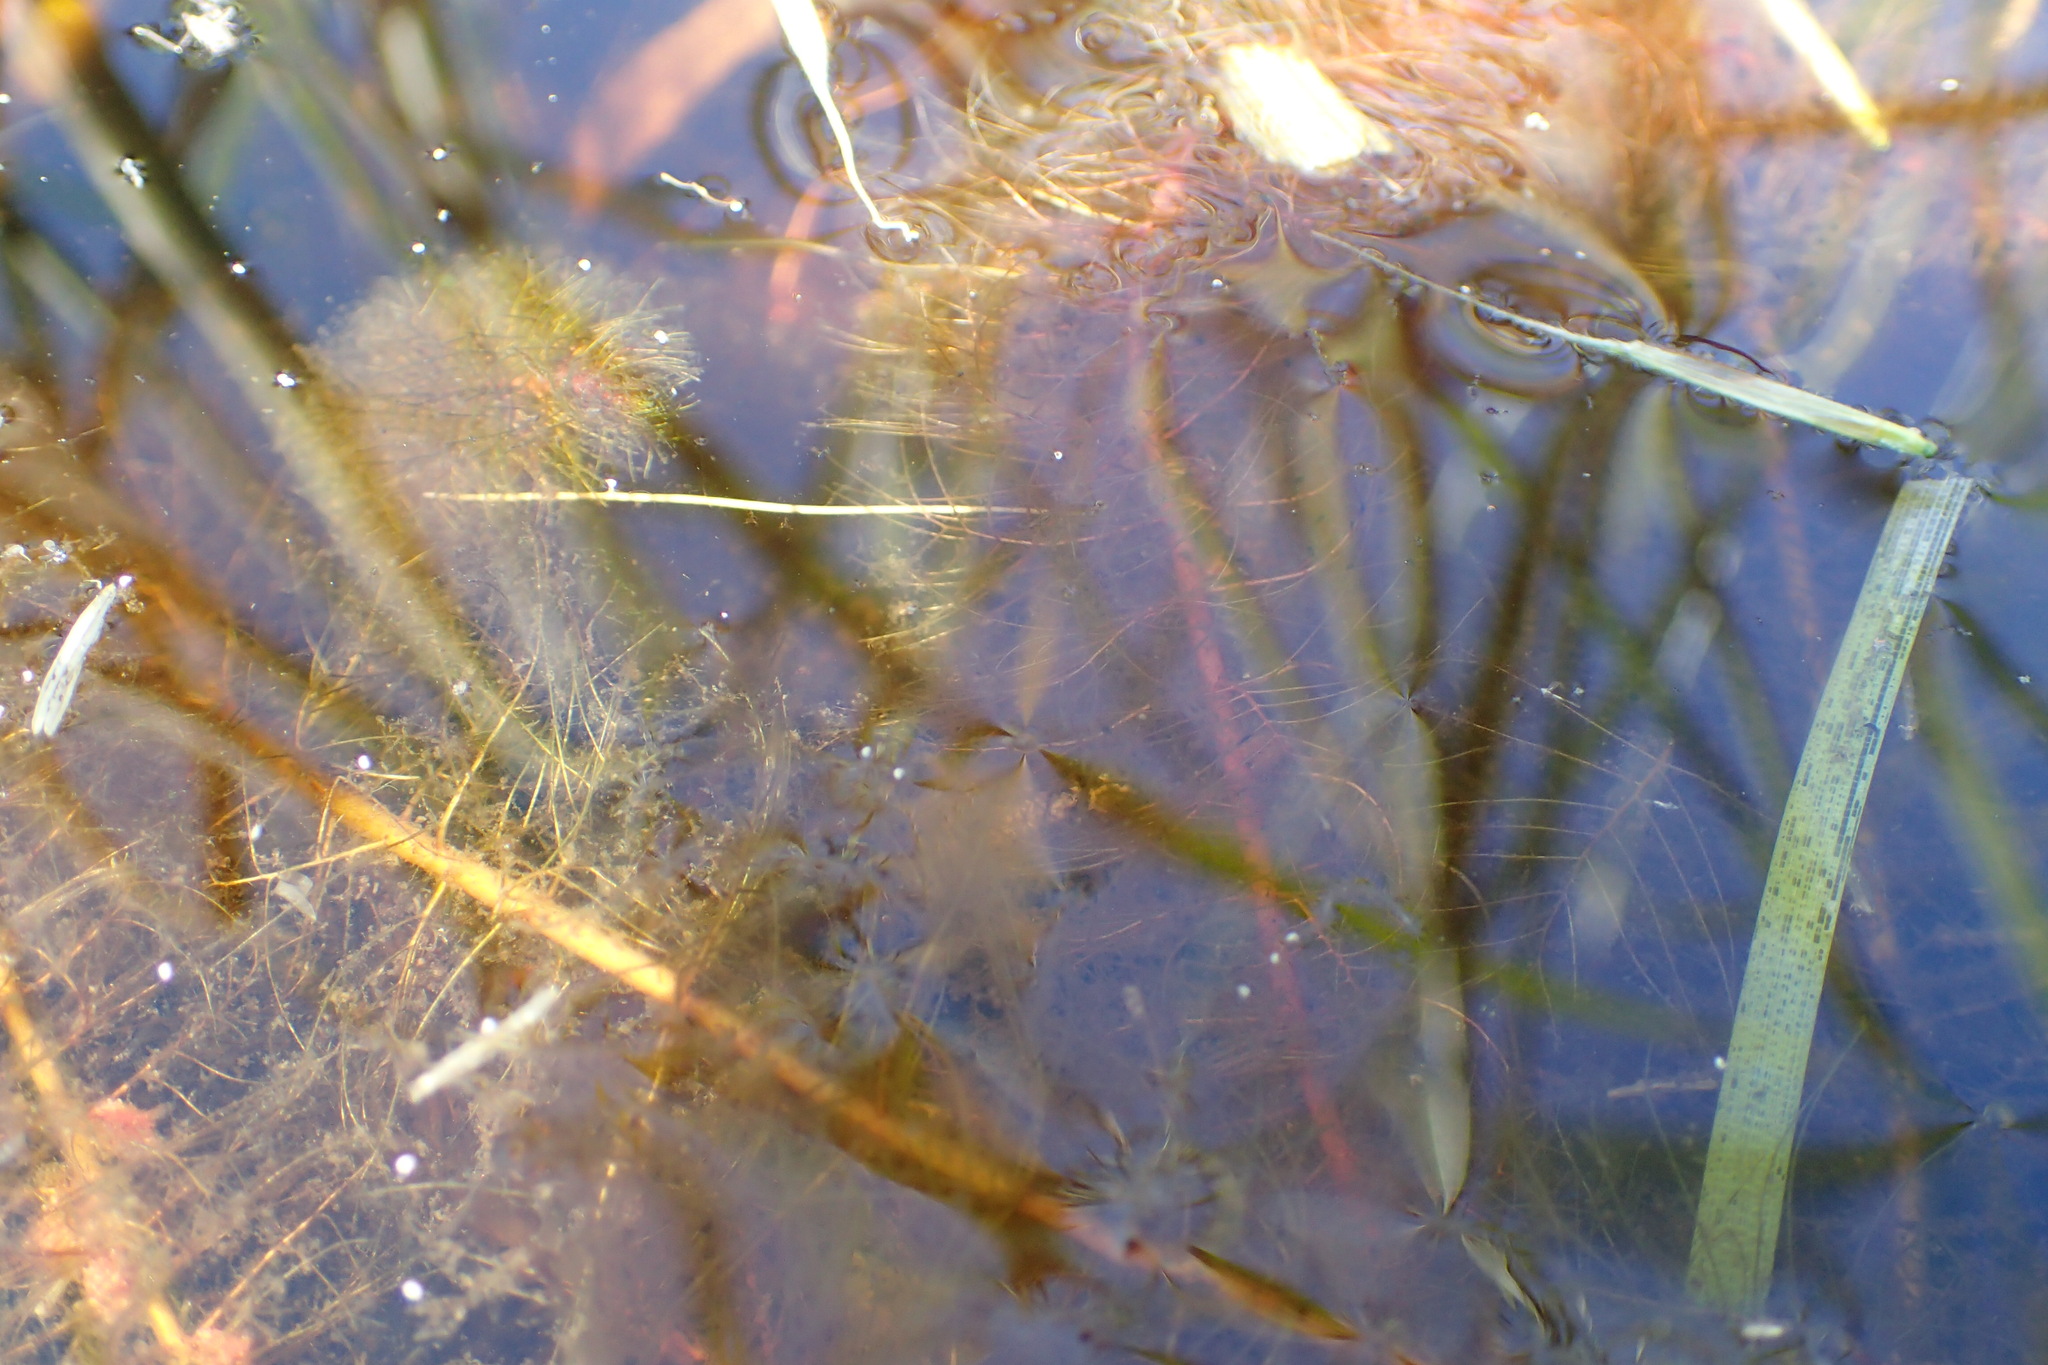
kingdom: Plantae
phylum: Tracheophyta
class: Magnoliopsida
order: Saxifragales
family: Haloragaceae
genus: Myriophyllum
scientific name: Myriophyllum farwellii
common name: Farwell's water-milfoil
